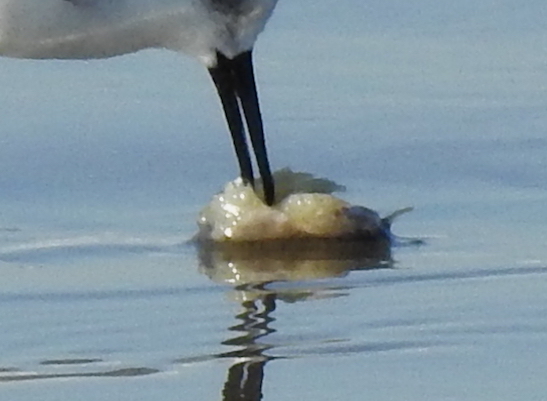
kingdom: Animalia
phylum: Arthropoda
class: Malacostraca
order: Decapoda
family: Hippidae
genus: Emerita
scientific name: Emerita analoga
